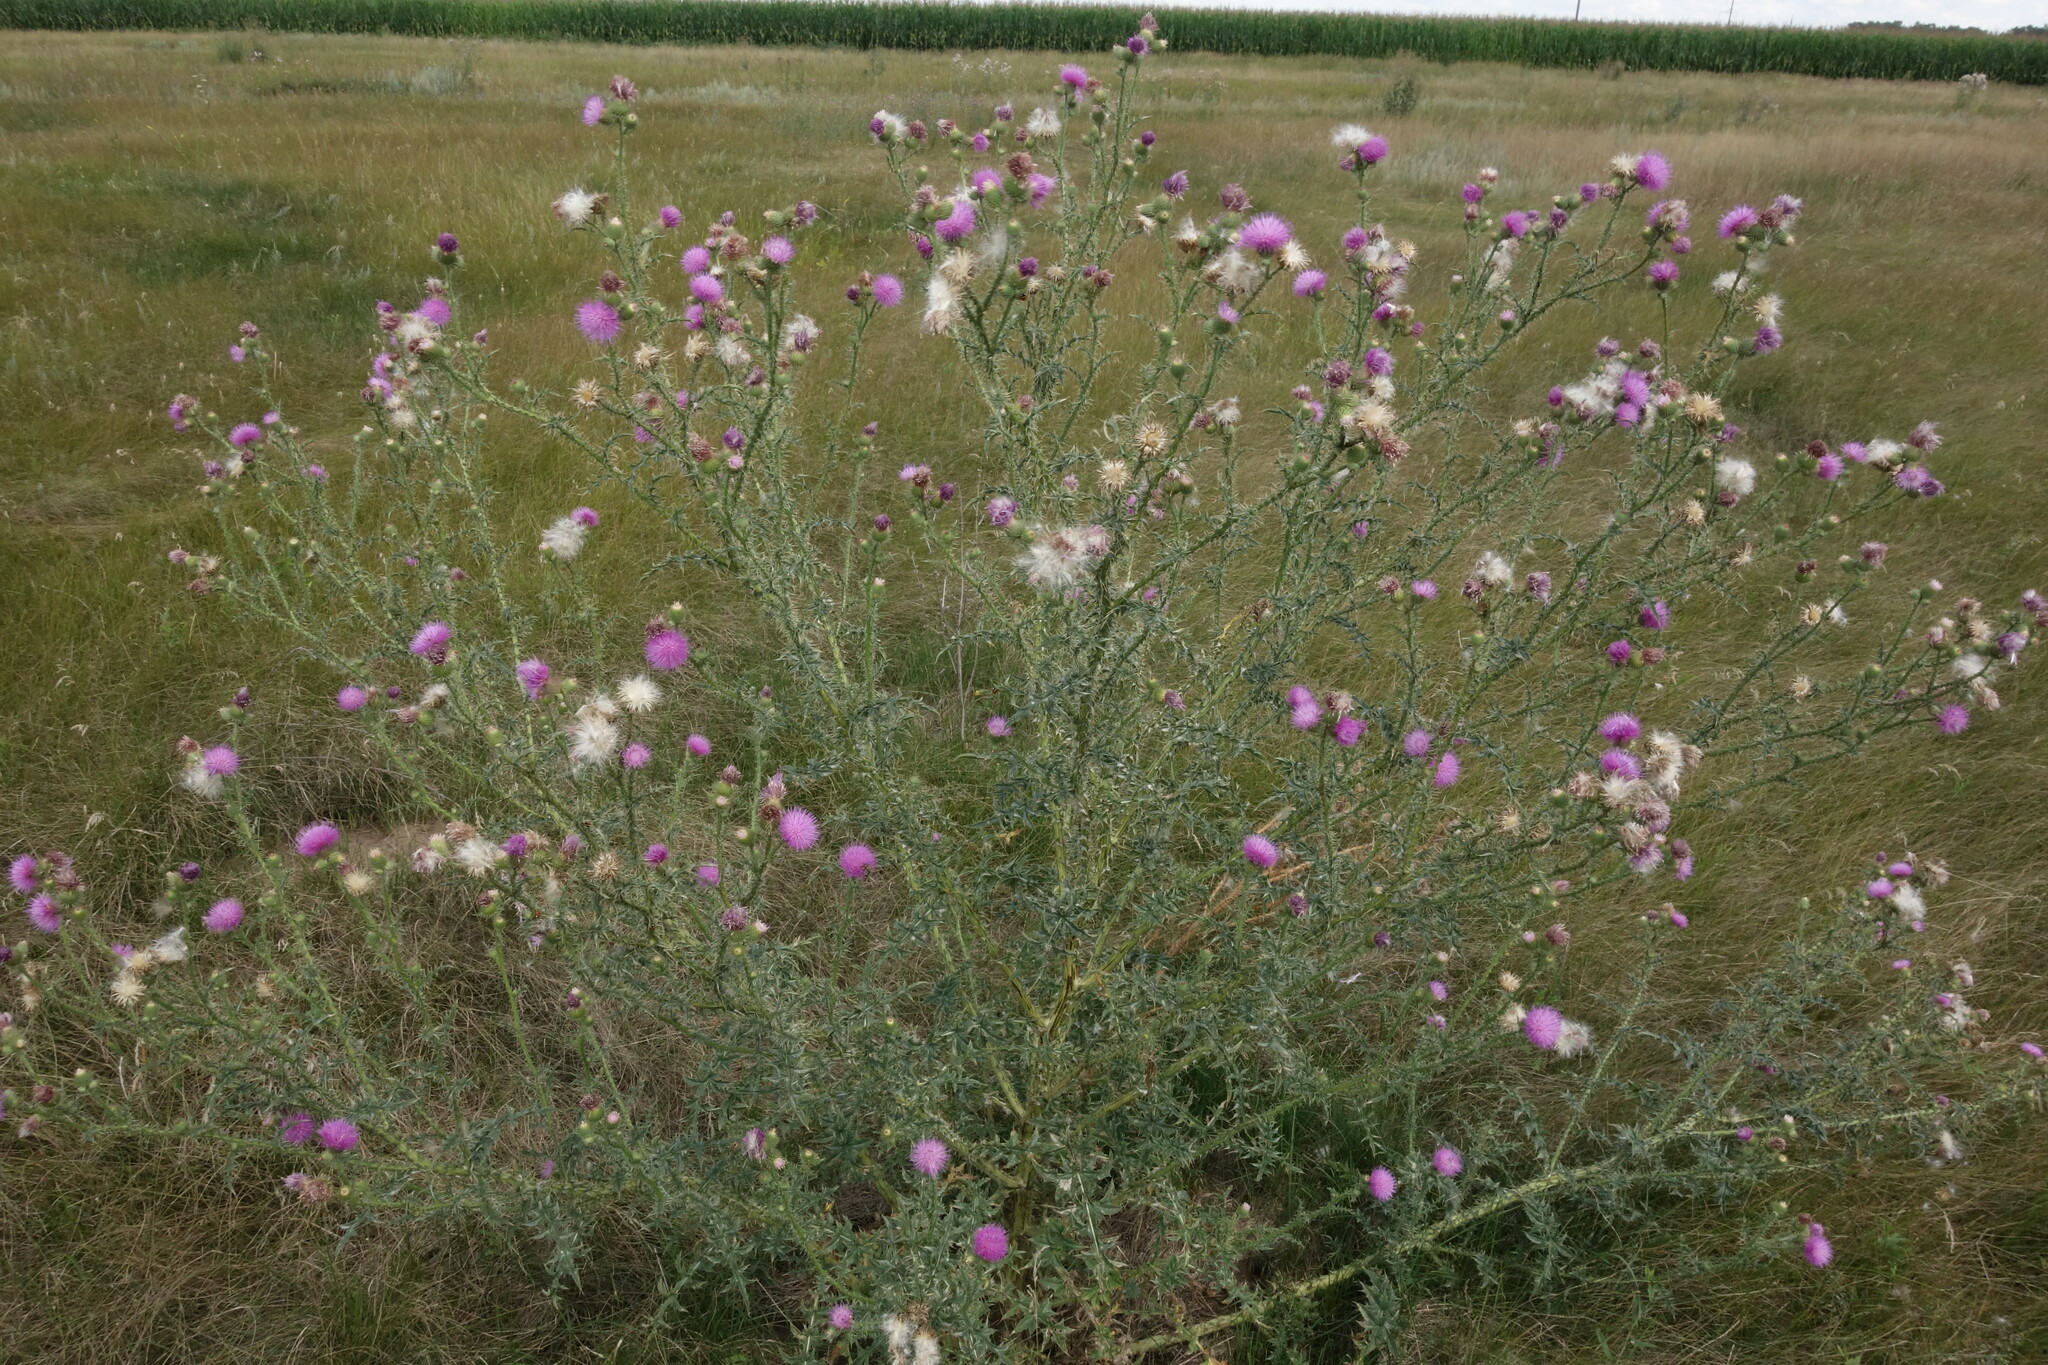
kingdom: Plantae
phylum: Tracheophyta
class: Magnoliopsida
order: Asterales
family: Asteraceae
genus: Carduus
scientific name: Carduus acanthoides
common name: Plumeless thistle
